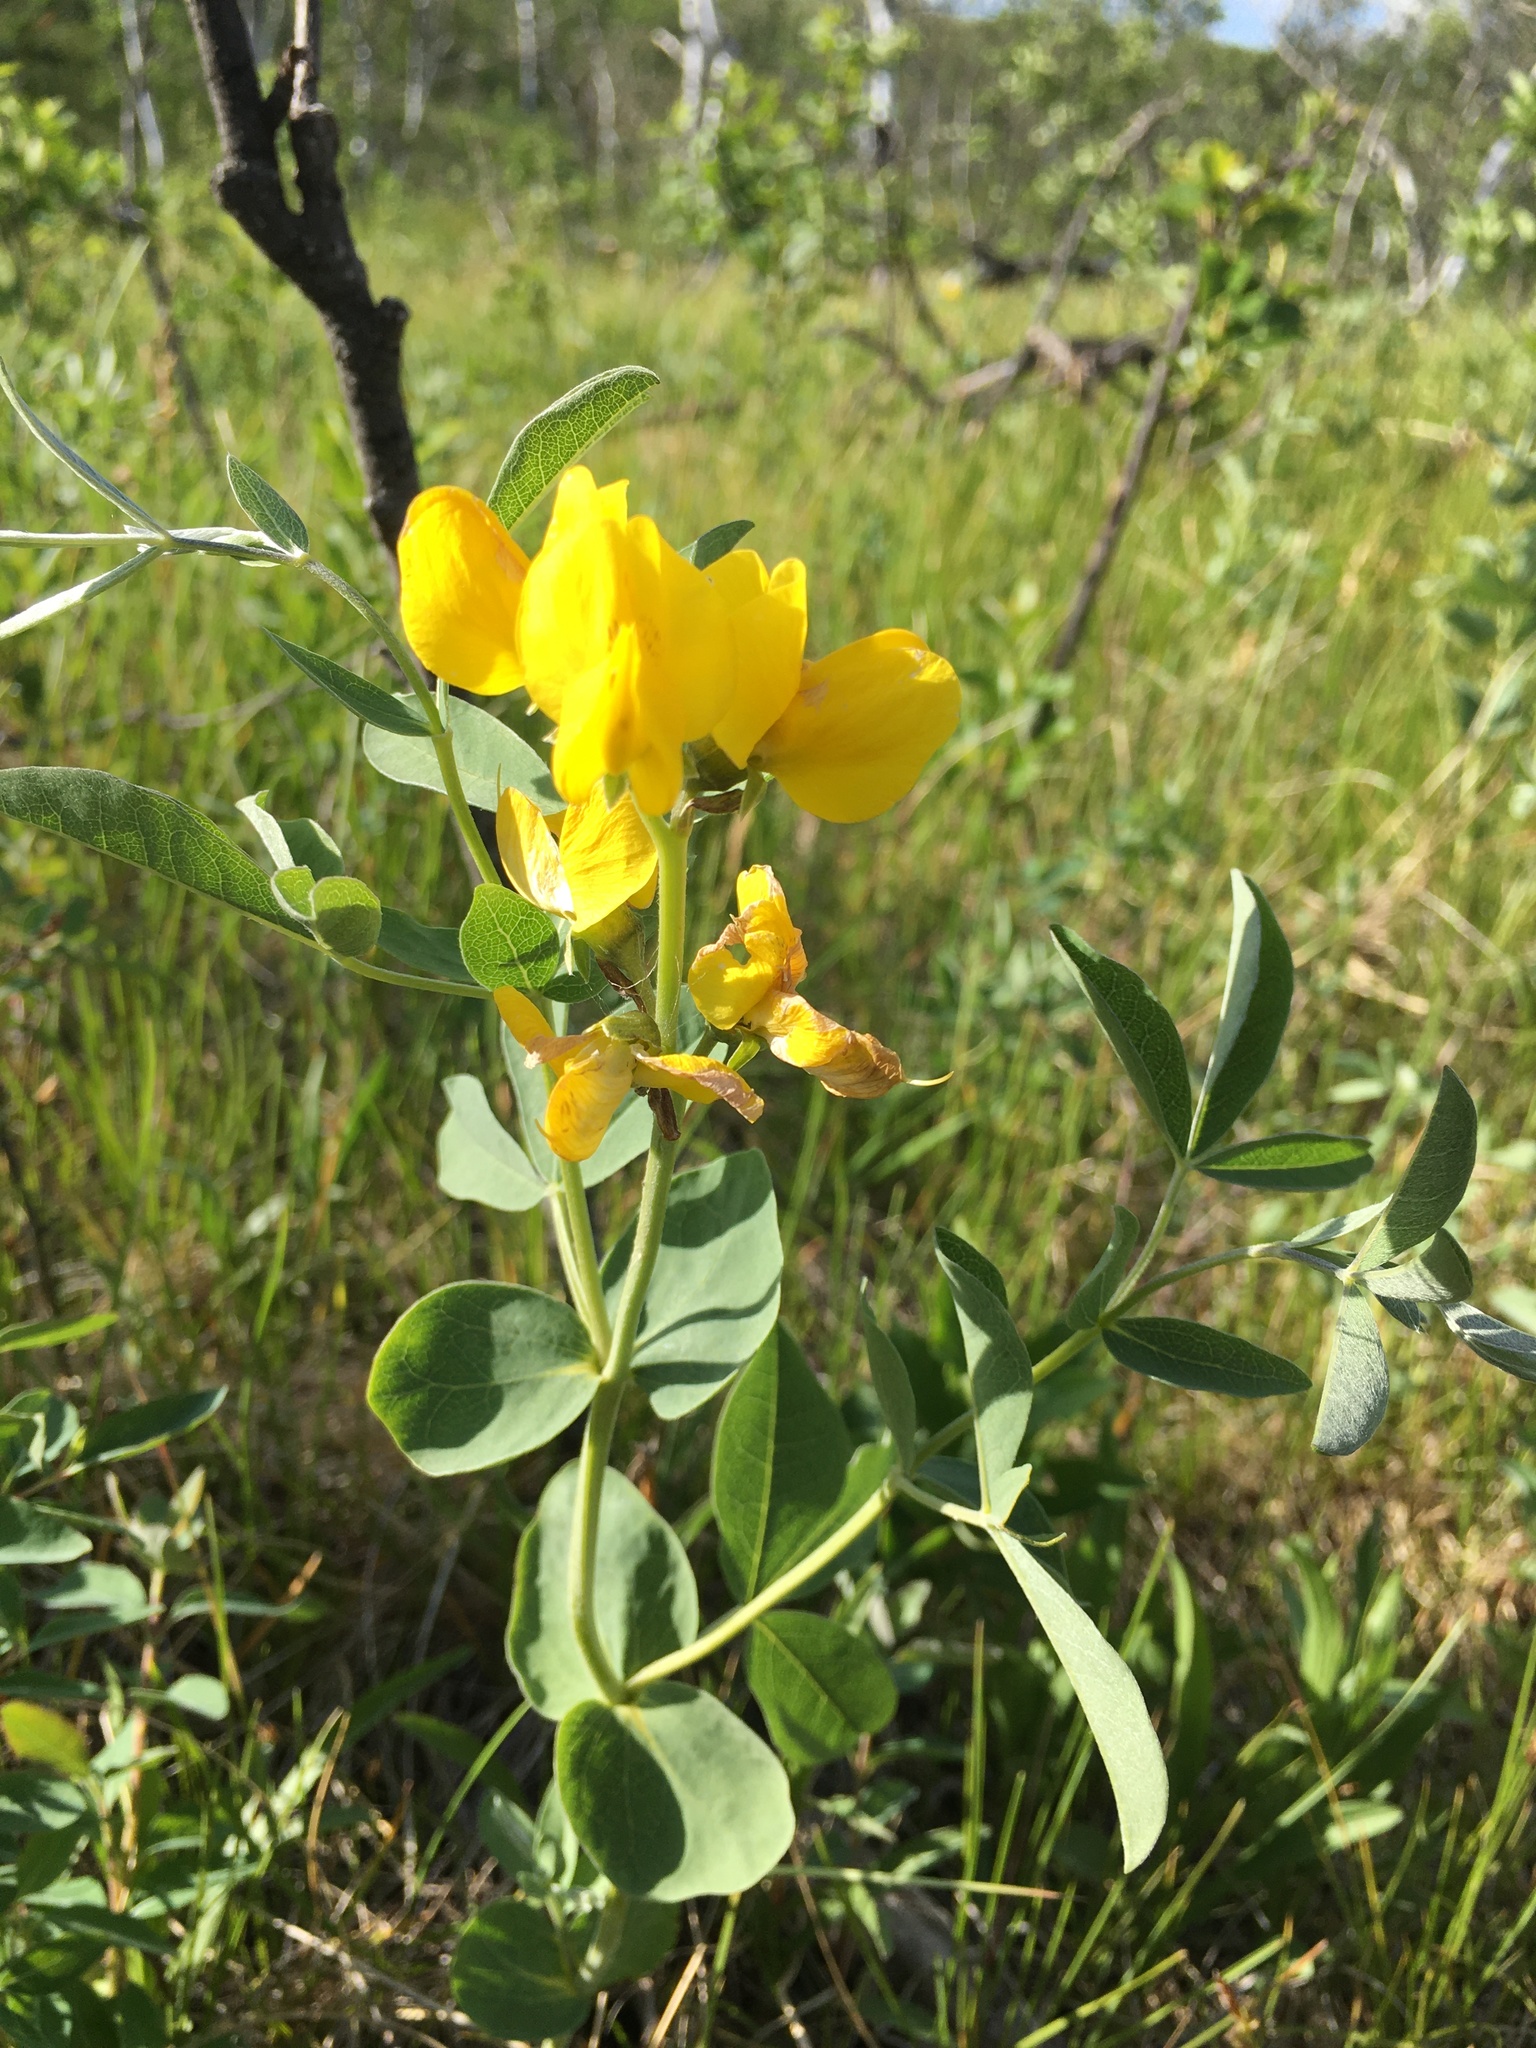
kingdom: Plantae
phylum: Tracheophyta
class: Magnoliopsida
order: Fabales
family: Fabaceae
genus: Thermopsis
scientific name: Thermopsis rhombifolia
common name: Circle-pod-pea
